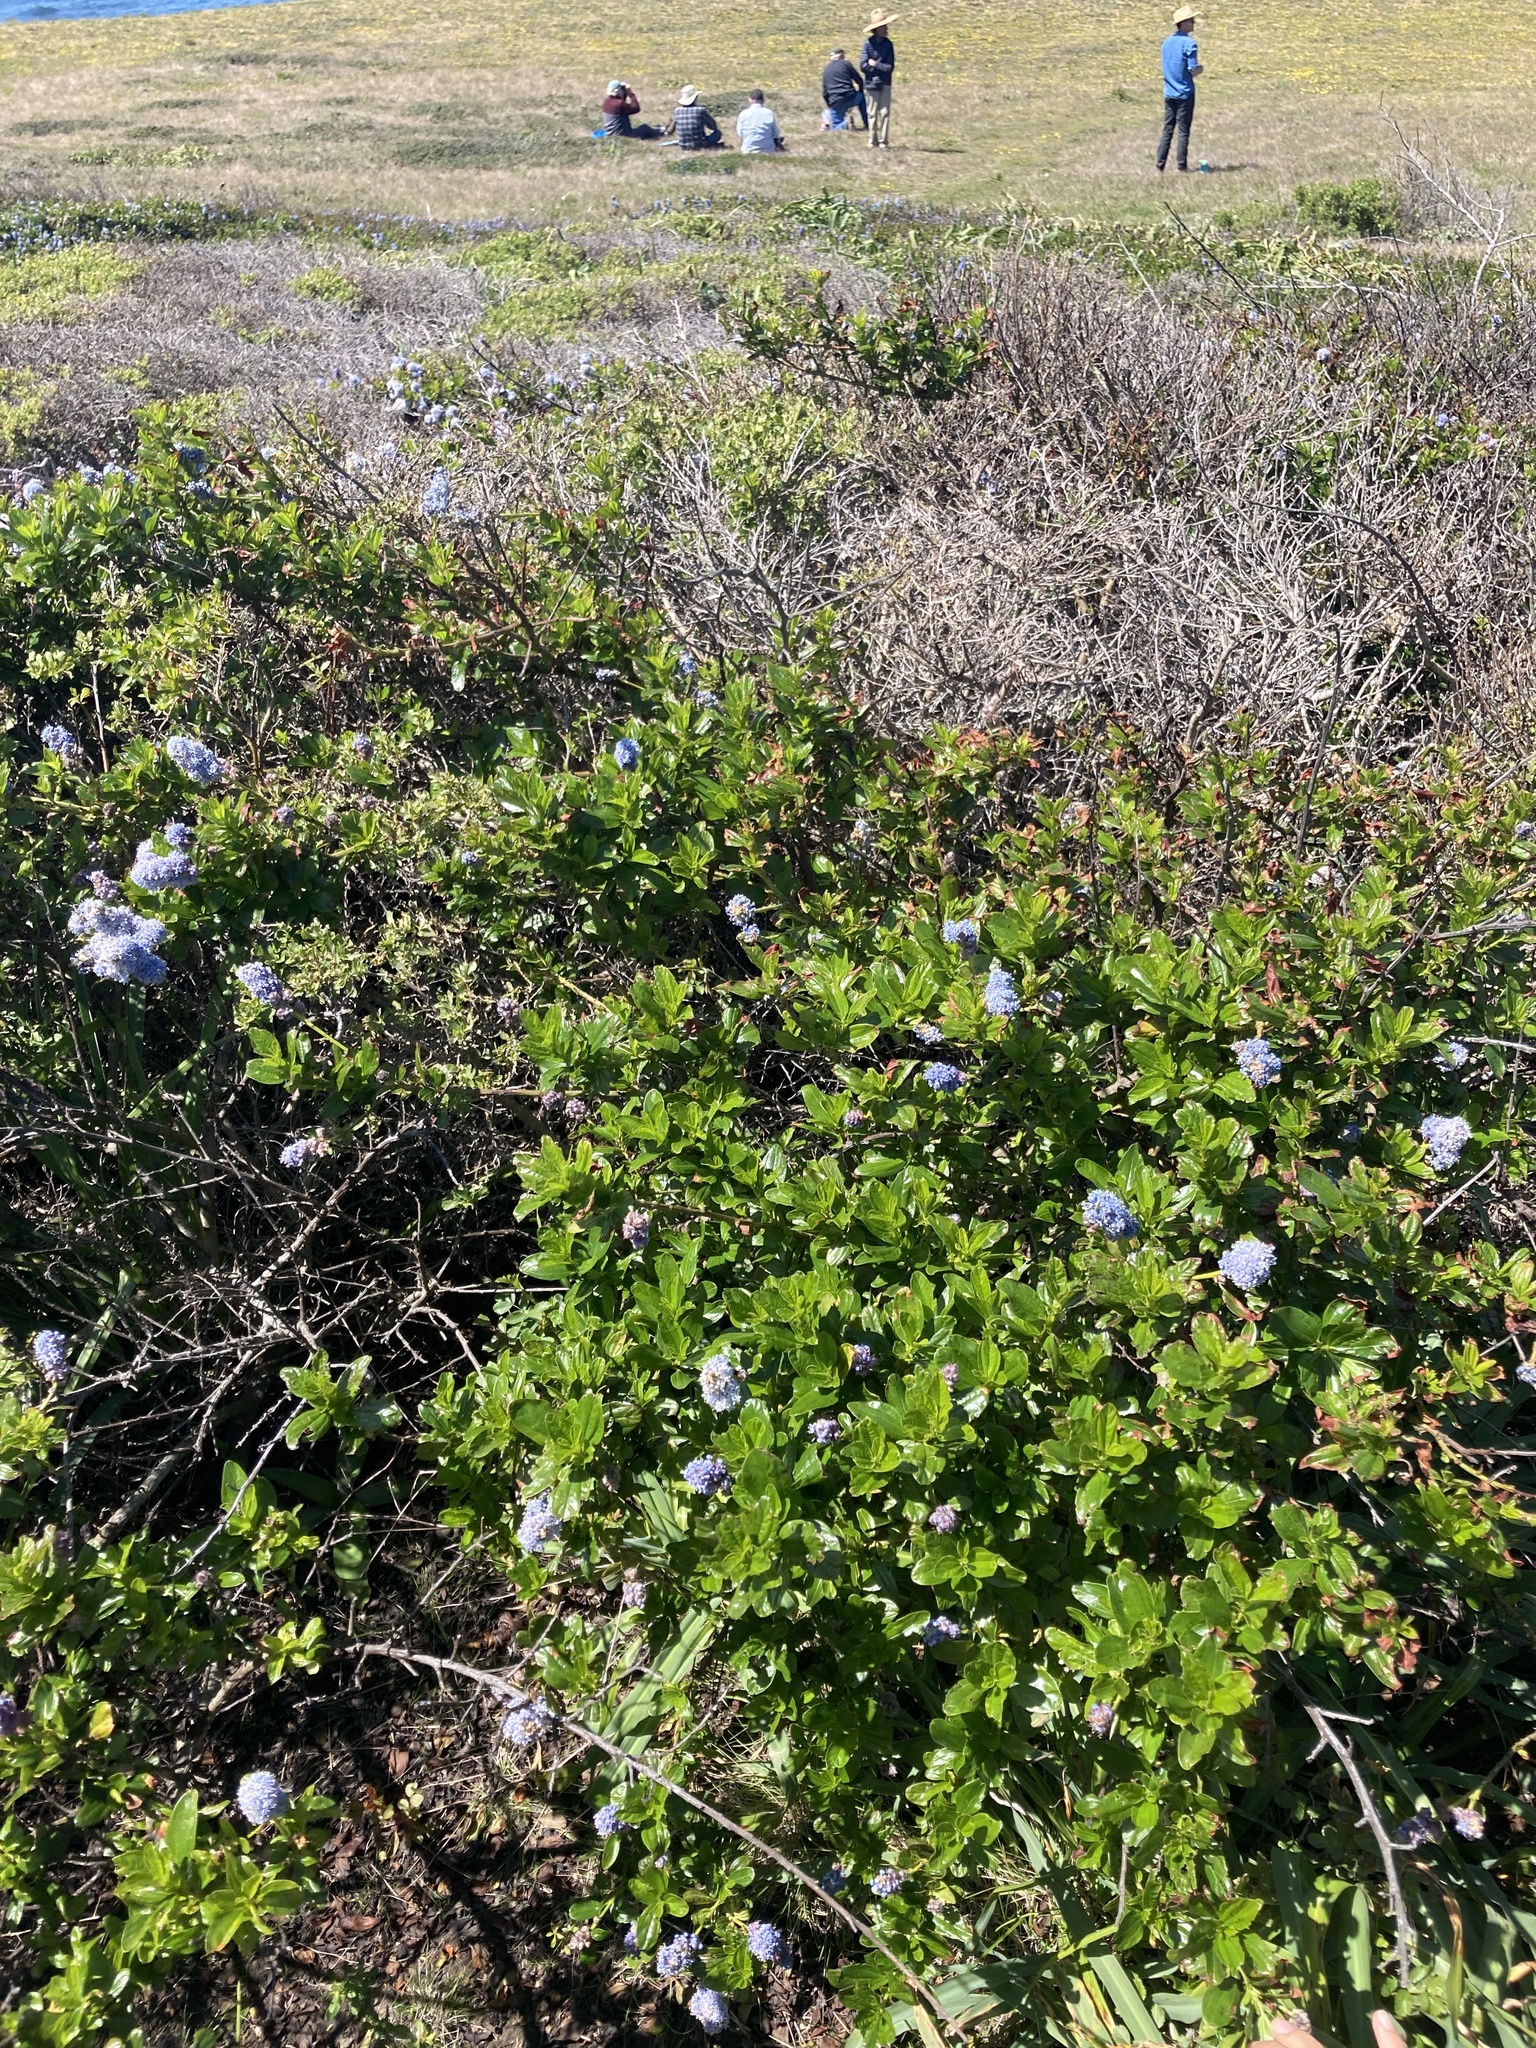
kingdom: Plantae
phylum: Tracheophyta
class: Magnoliopsida
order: Rosales
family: Rhamnaceae
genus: Ceanothus
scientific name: Ceanothus thyrsiflorus
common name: California-lilac
